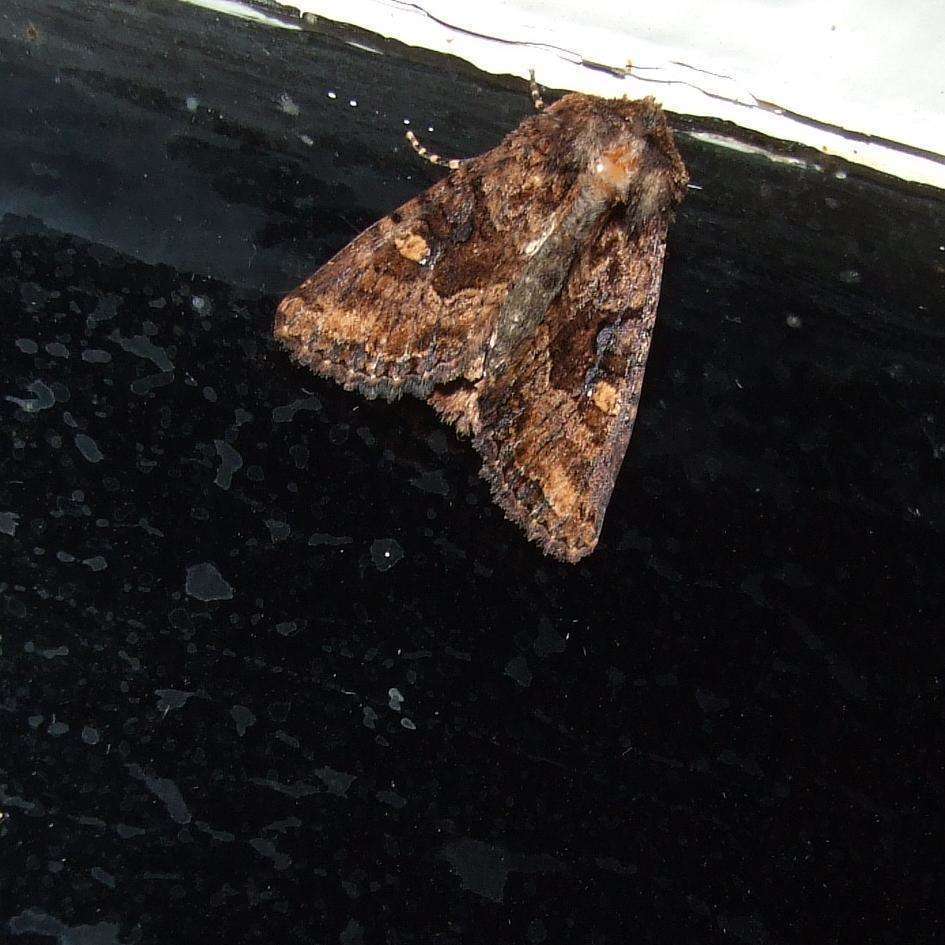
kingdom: Animalia
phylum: Arthropoda
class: Insecta
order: Lepidoptera
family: Noctuidae
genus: Neumichtis
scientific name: Neumichtis saliaris
